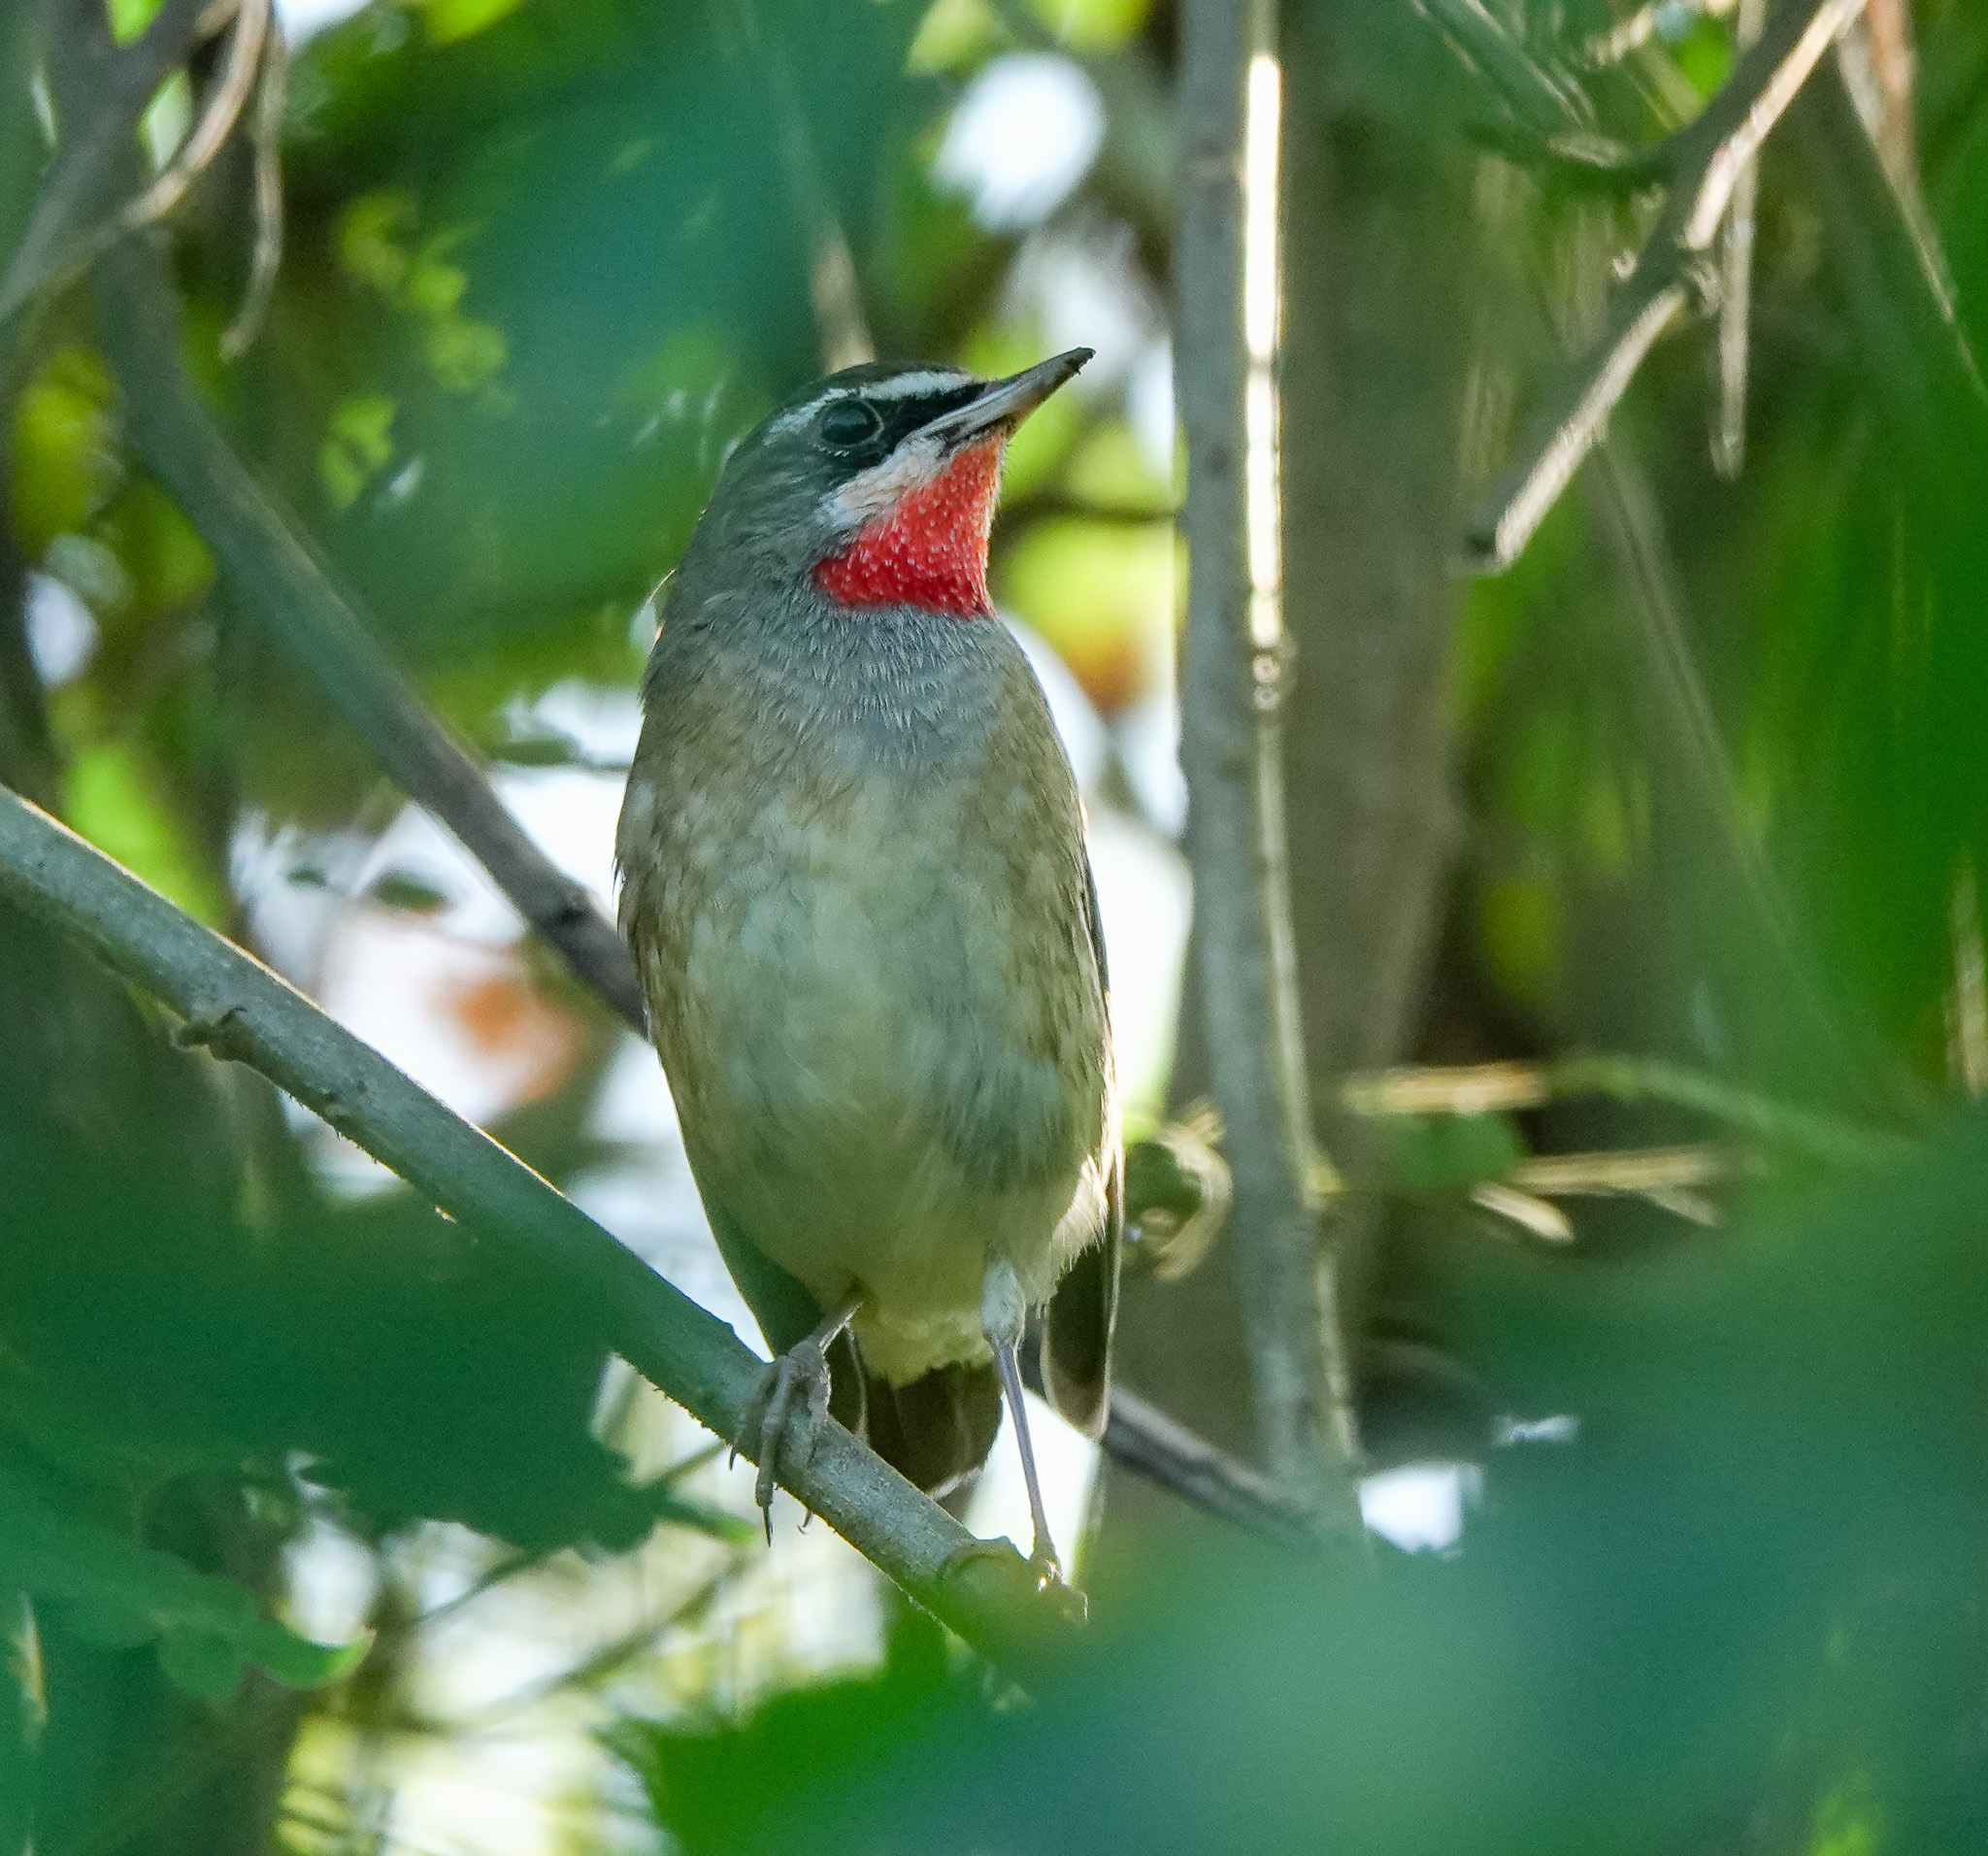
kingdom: Animalia
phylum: Chordata
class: Aves
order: Passeriformes
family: Muscicapidae
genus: Luscinia
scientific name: Luscinia calliope
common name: Siberian rubythroat
